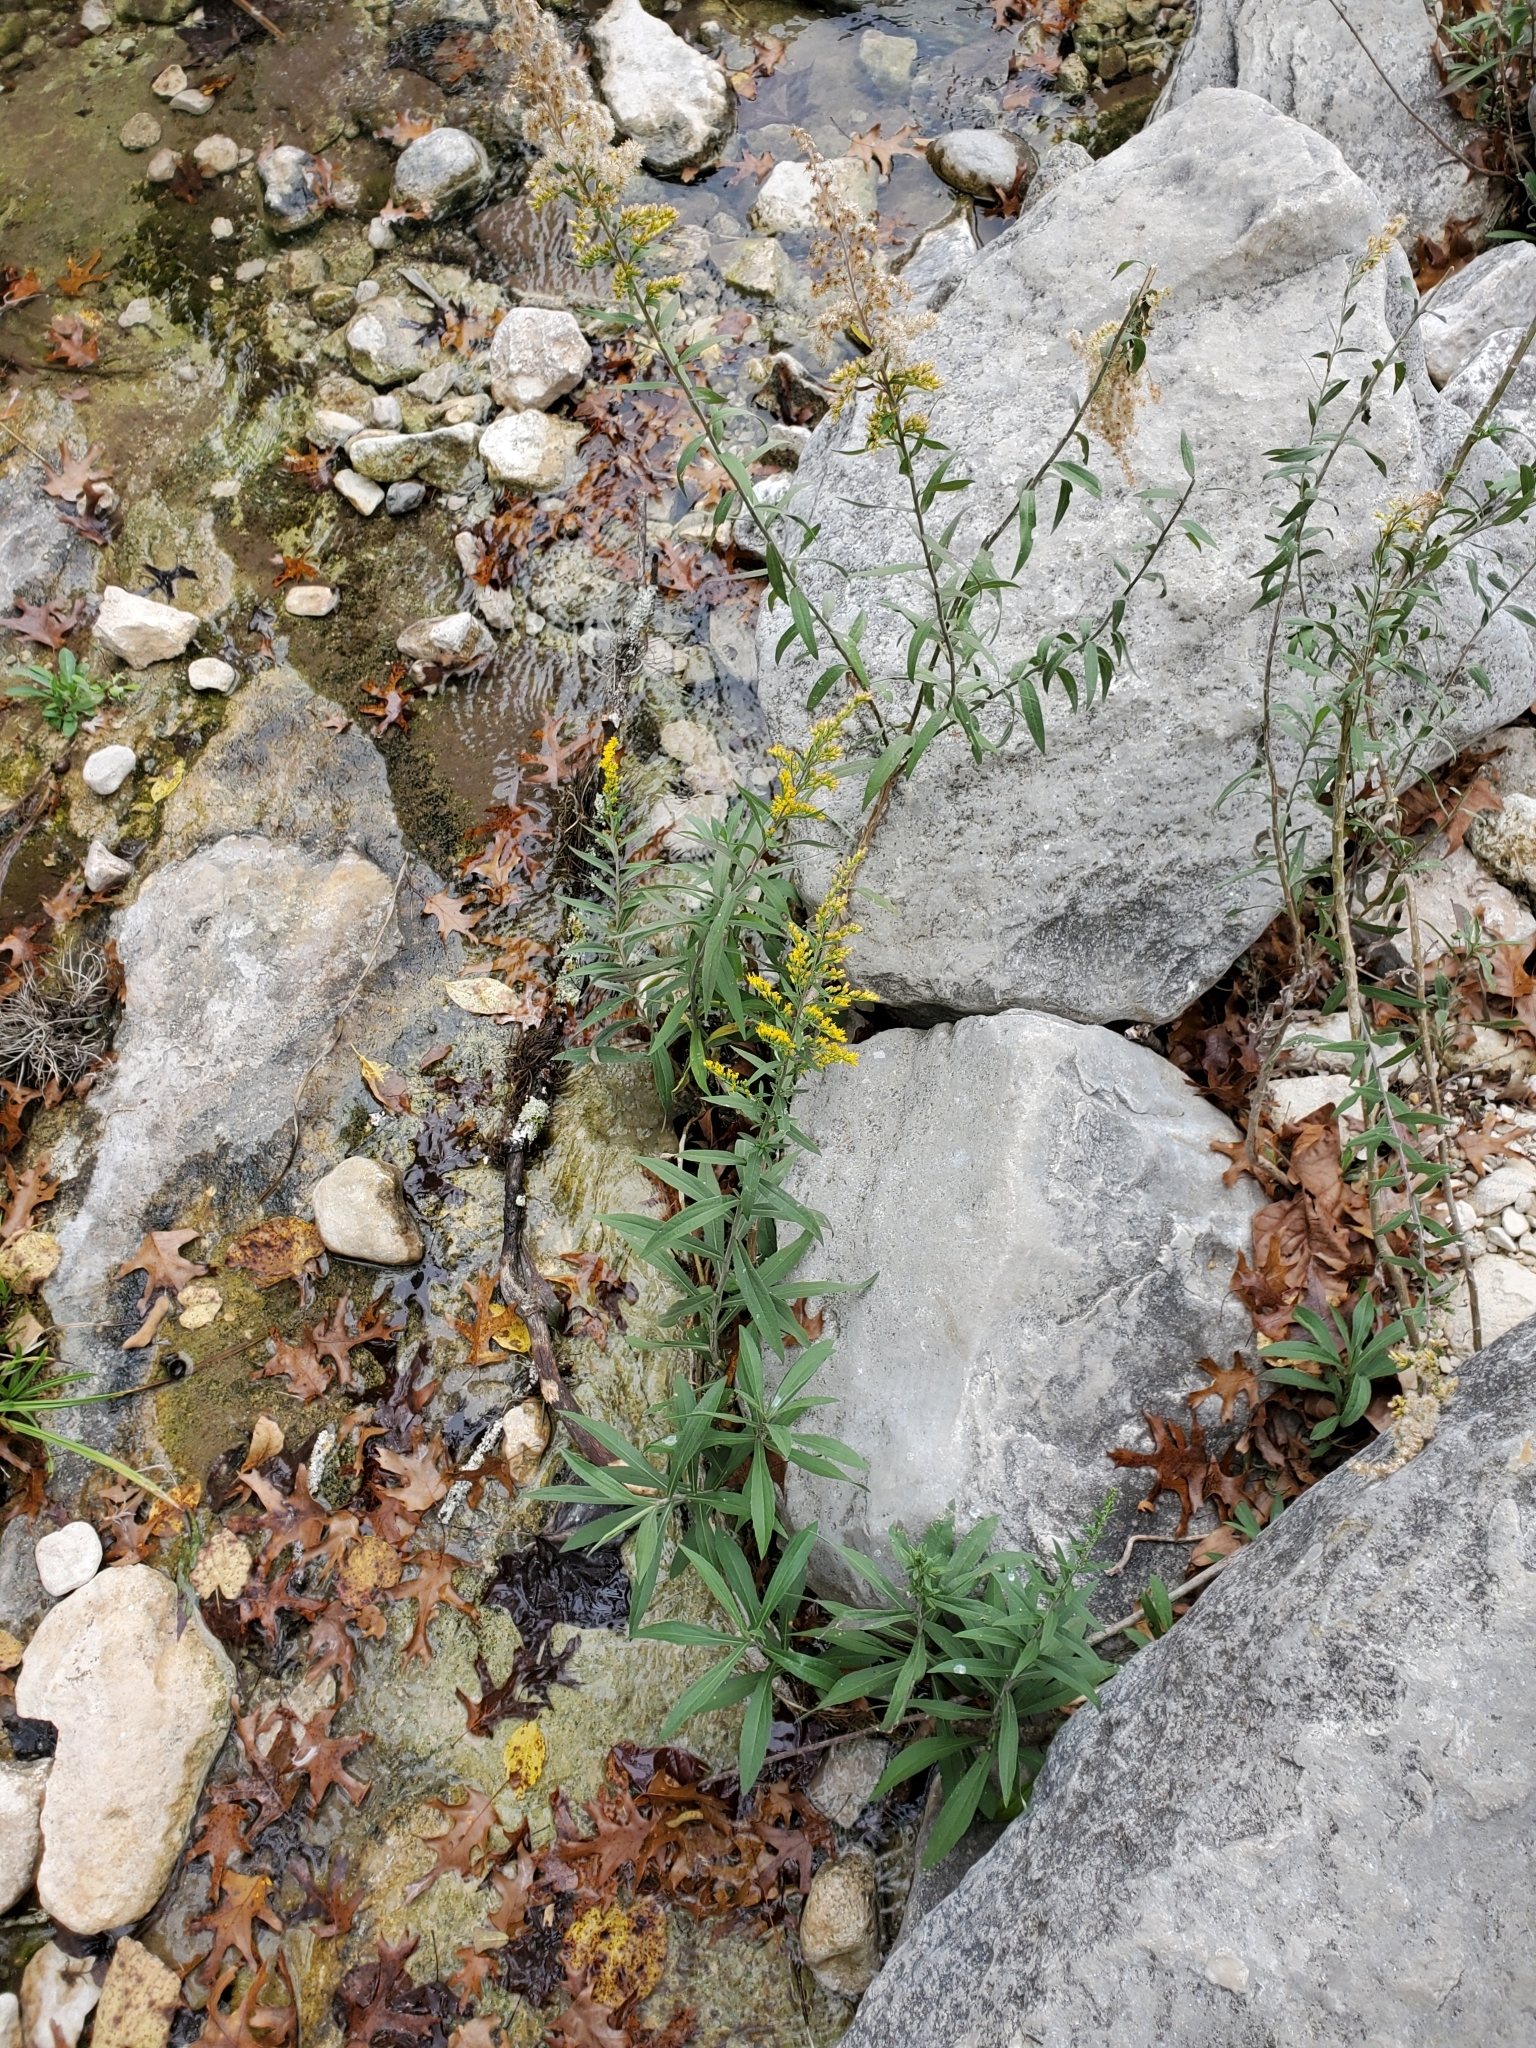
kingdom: Plantae
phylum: Tracheophyta
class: Magnoliopsida
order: Asterales
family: Asteraceae
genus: Solidago
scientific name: Solidago juliae
